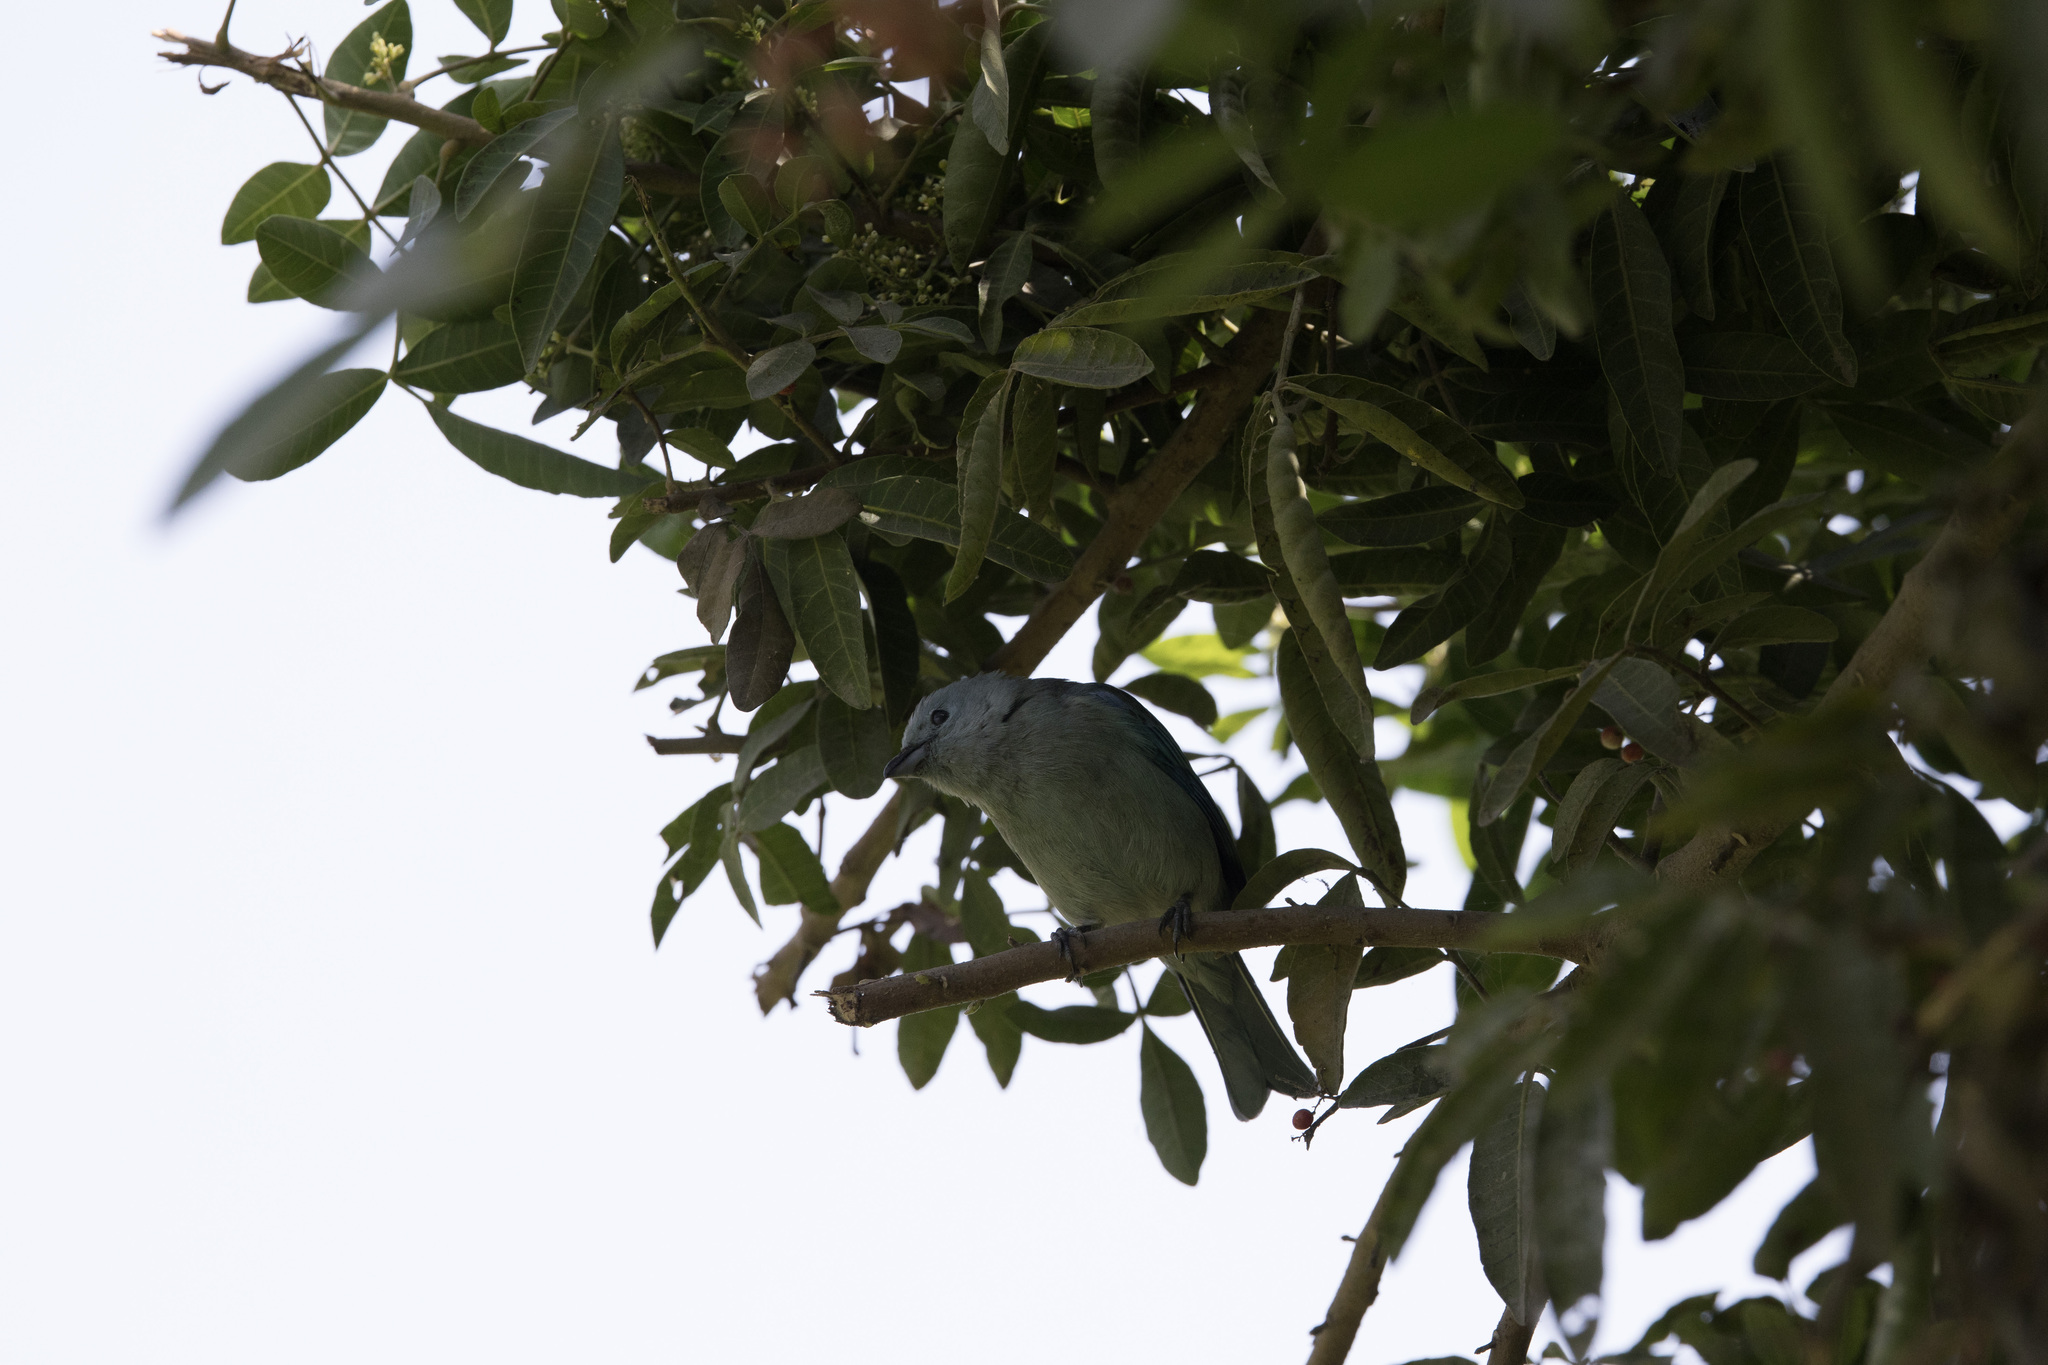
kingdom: Animalia
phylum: Chordata
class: Aves
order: Passeriformes
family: Thraupidae
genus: Thraupis
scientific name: Thraupis episcopus
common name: Blue-grey tanager
